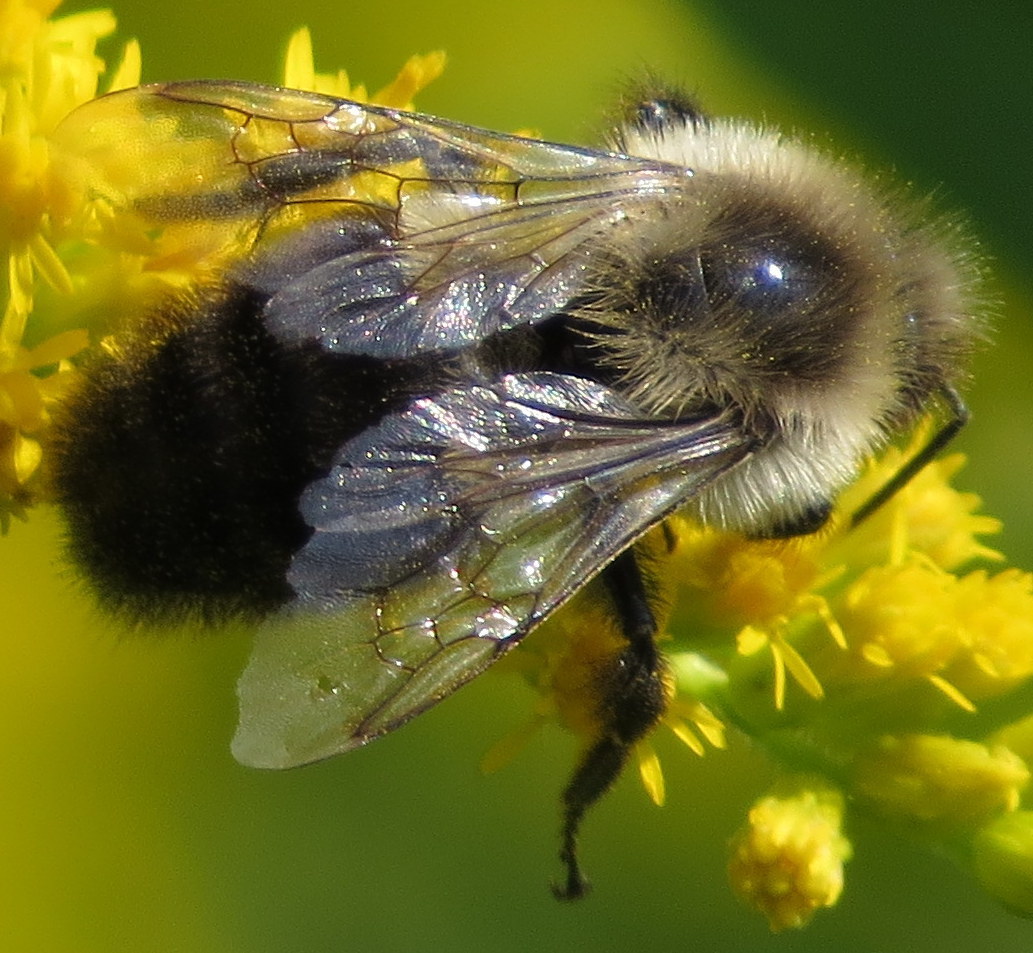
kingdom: Animalia
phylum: Arthropoda
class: Insecta
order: Hymenoptera
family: Apidae
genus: Bombus
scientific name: Bombus impatiens
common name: Common eastern bumble bee
